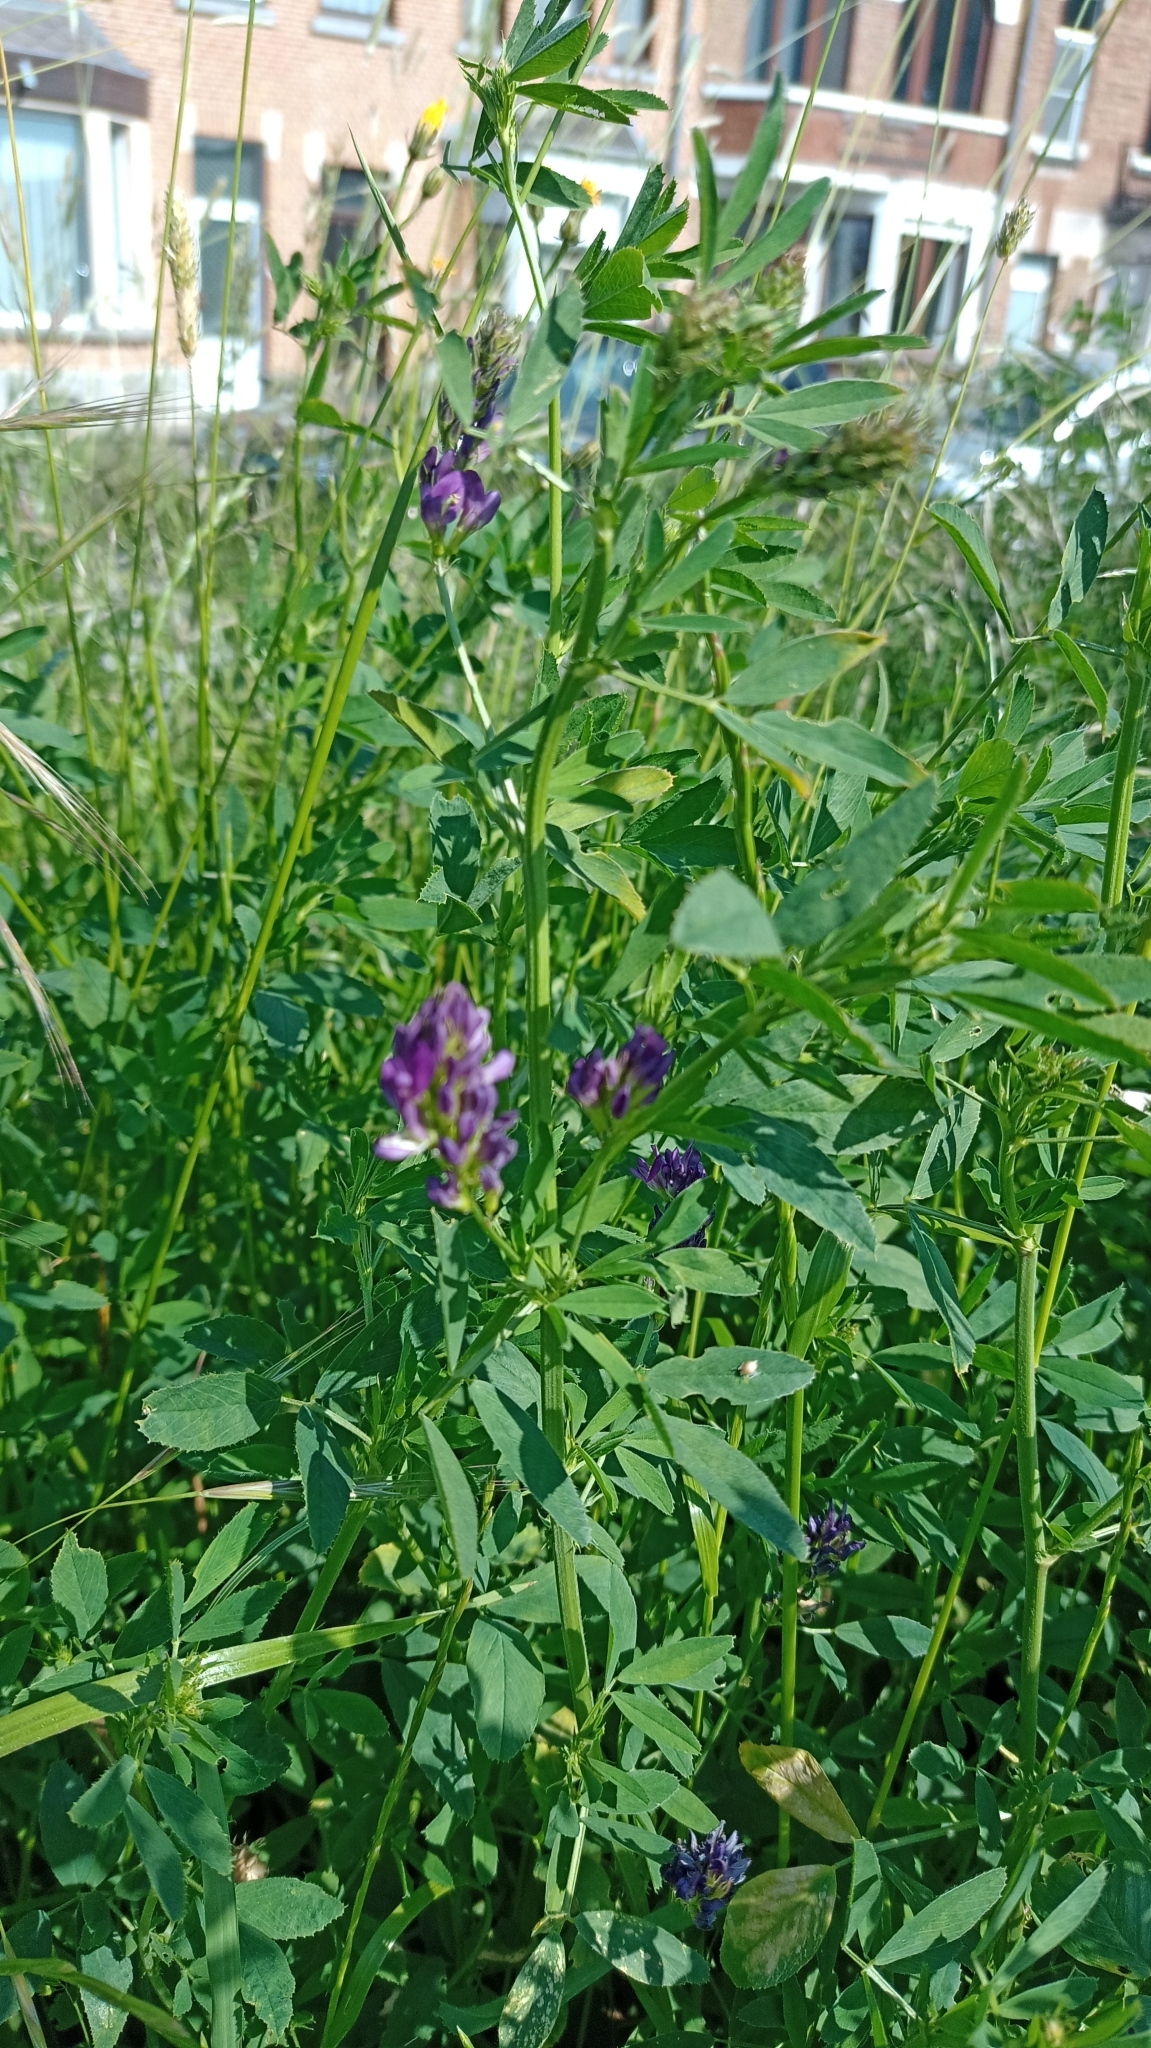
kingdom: Plantae
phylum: Tracheophyta
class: Magnoliopsida
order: Fabales
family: Fabaceae
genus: Medicago
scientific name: Medicago sativa
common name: Alfalfa
